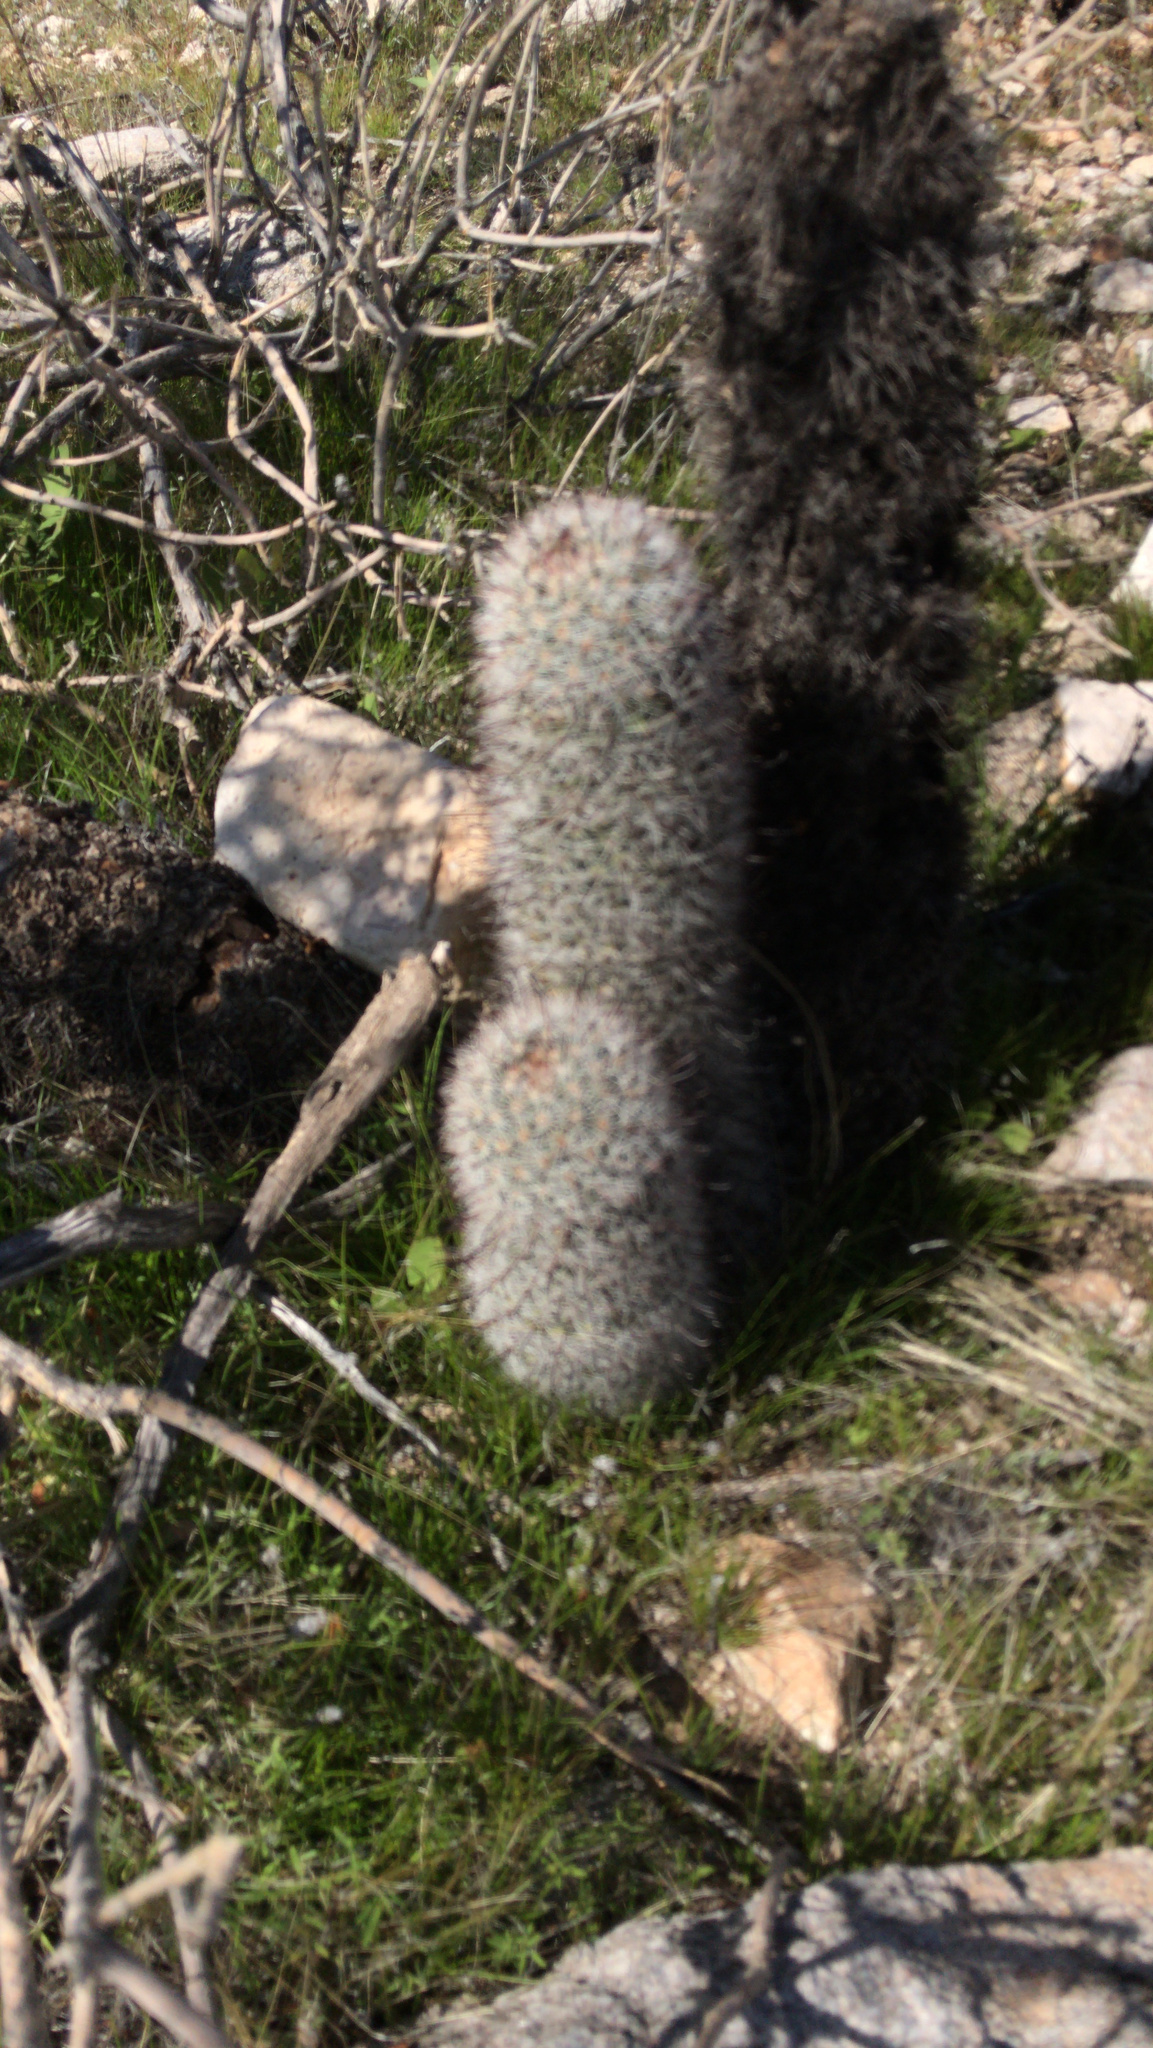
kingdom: Plantae
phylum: Tracheophyta
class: Magnoliopsida
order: Caryophyllales
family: Cactaceae
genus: Cochemiea
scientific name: Cochemiea grahamii
